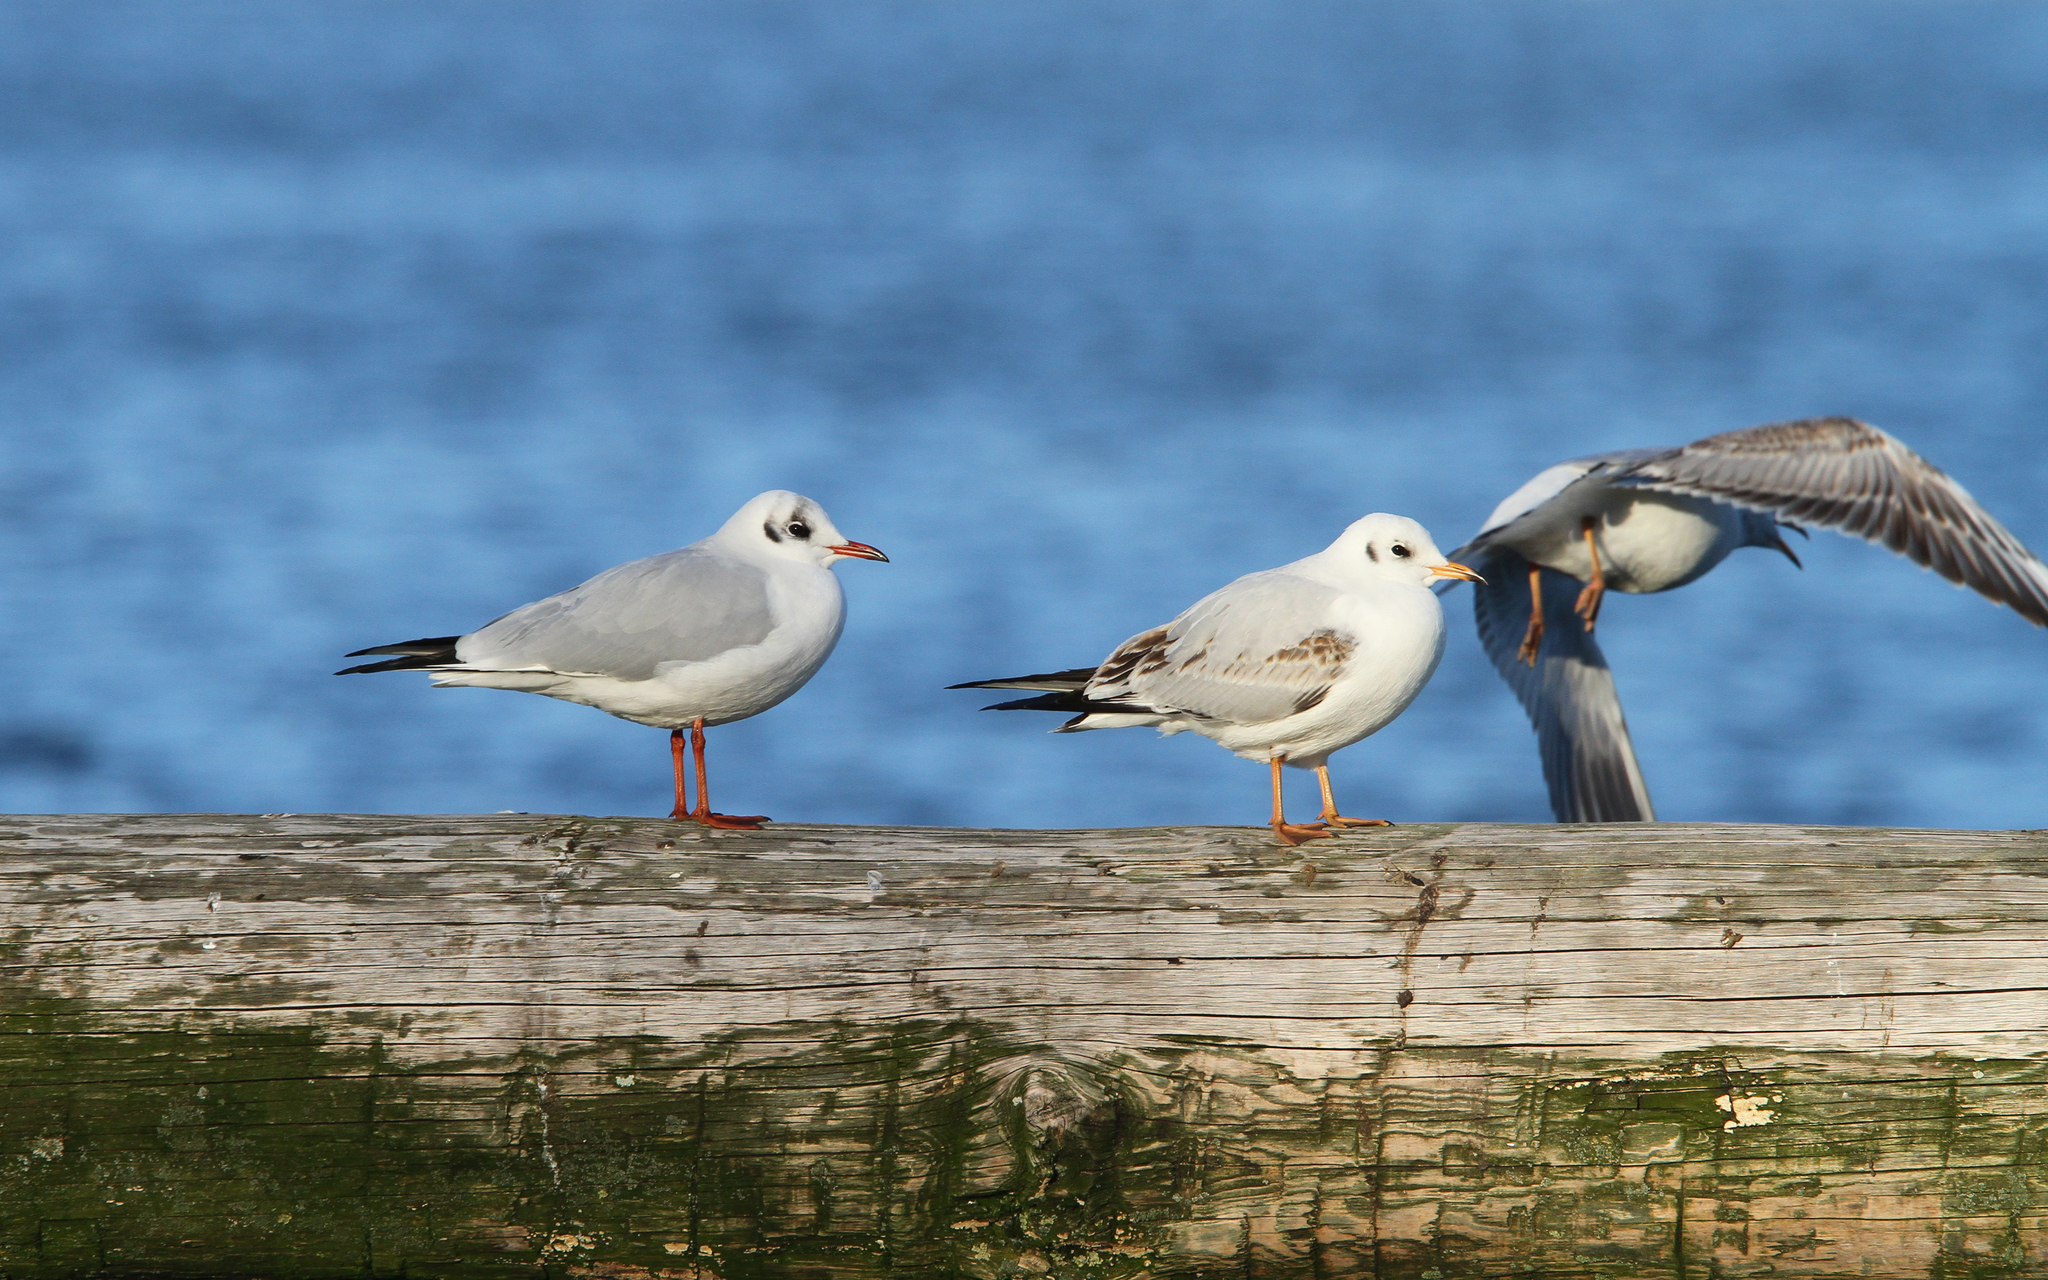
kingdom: Animalia
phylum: Chordata
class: Aves
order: Charadriiformes
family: Laridae
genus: Chroicocephalus
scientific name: Chroicocephalus ridibundus
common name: Black-headed gull
